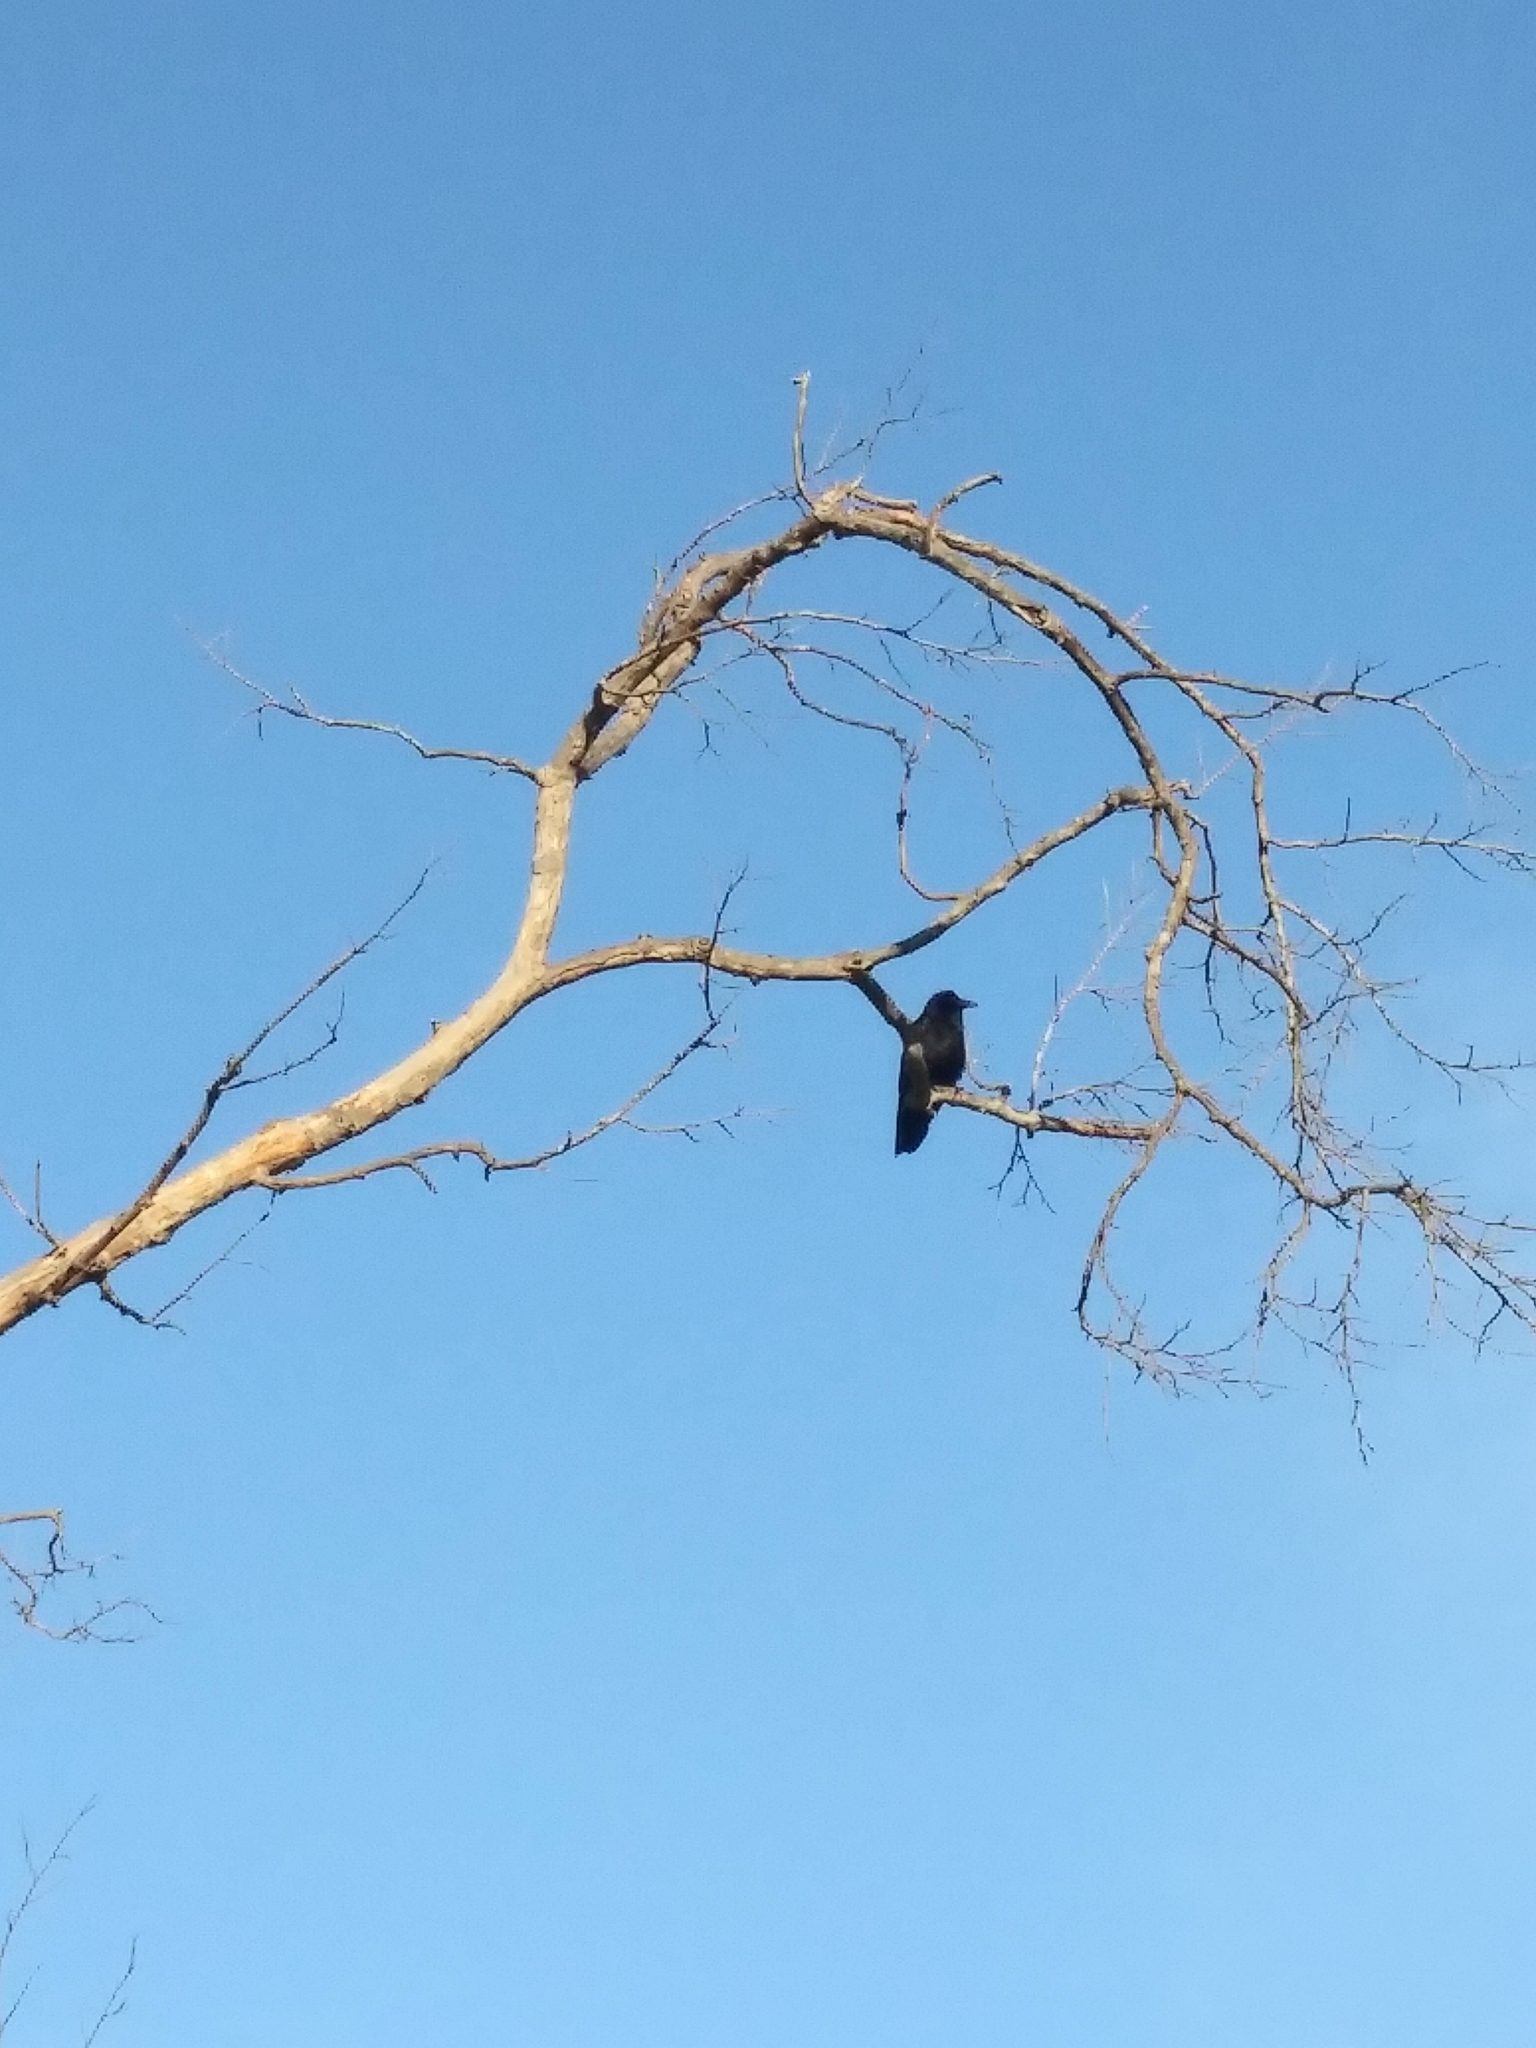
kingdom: Animalia
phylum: Chordata
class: Aves
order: Passeriformes
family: Corvidae
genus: Corvus
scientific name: Corvus corax
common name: Common raven
